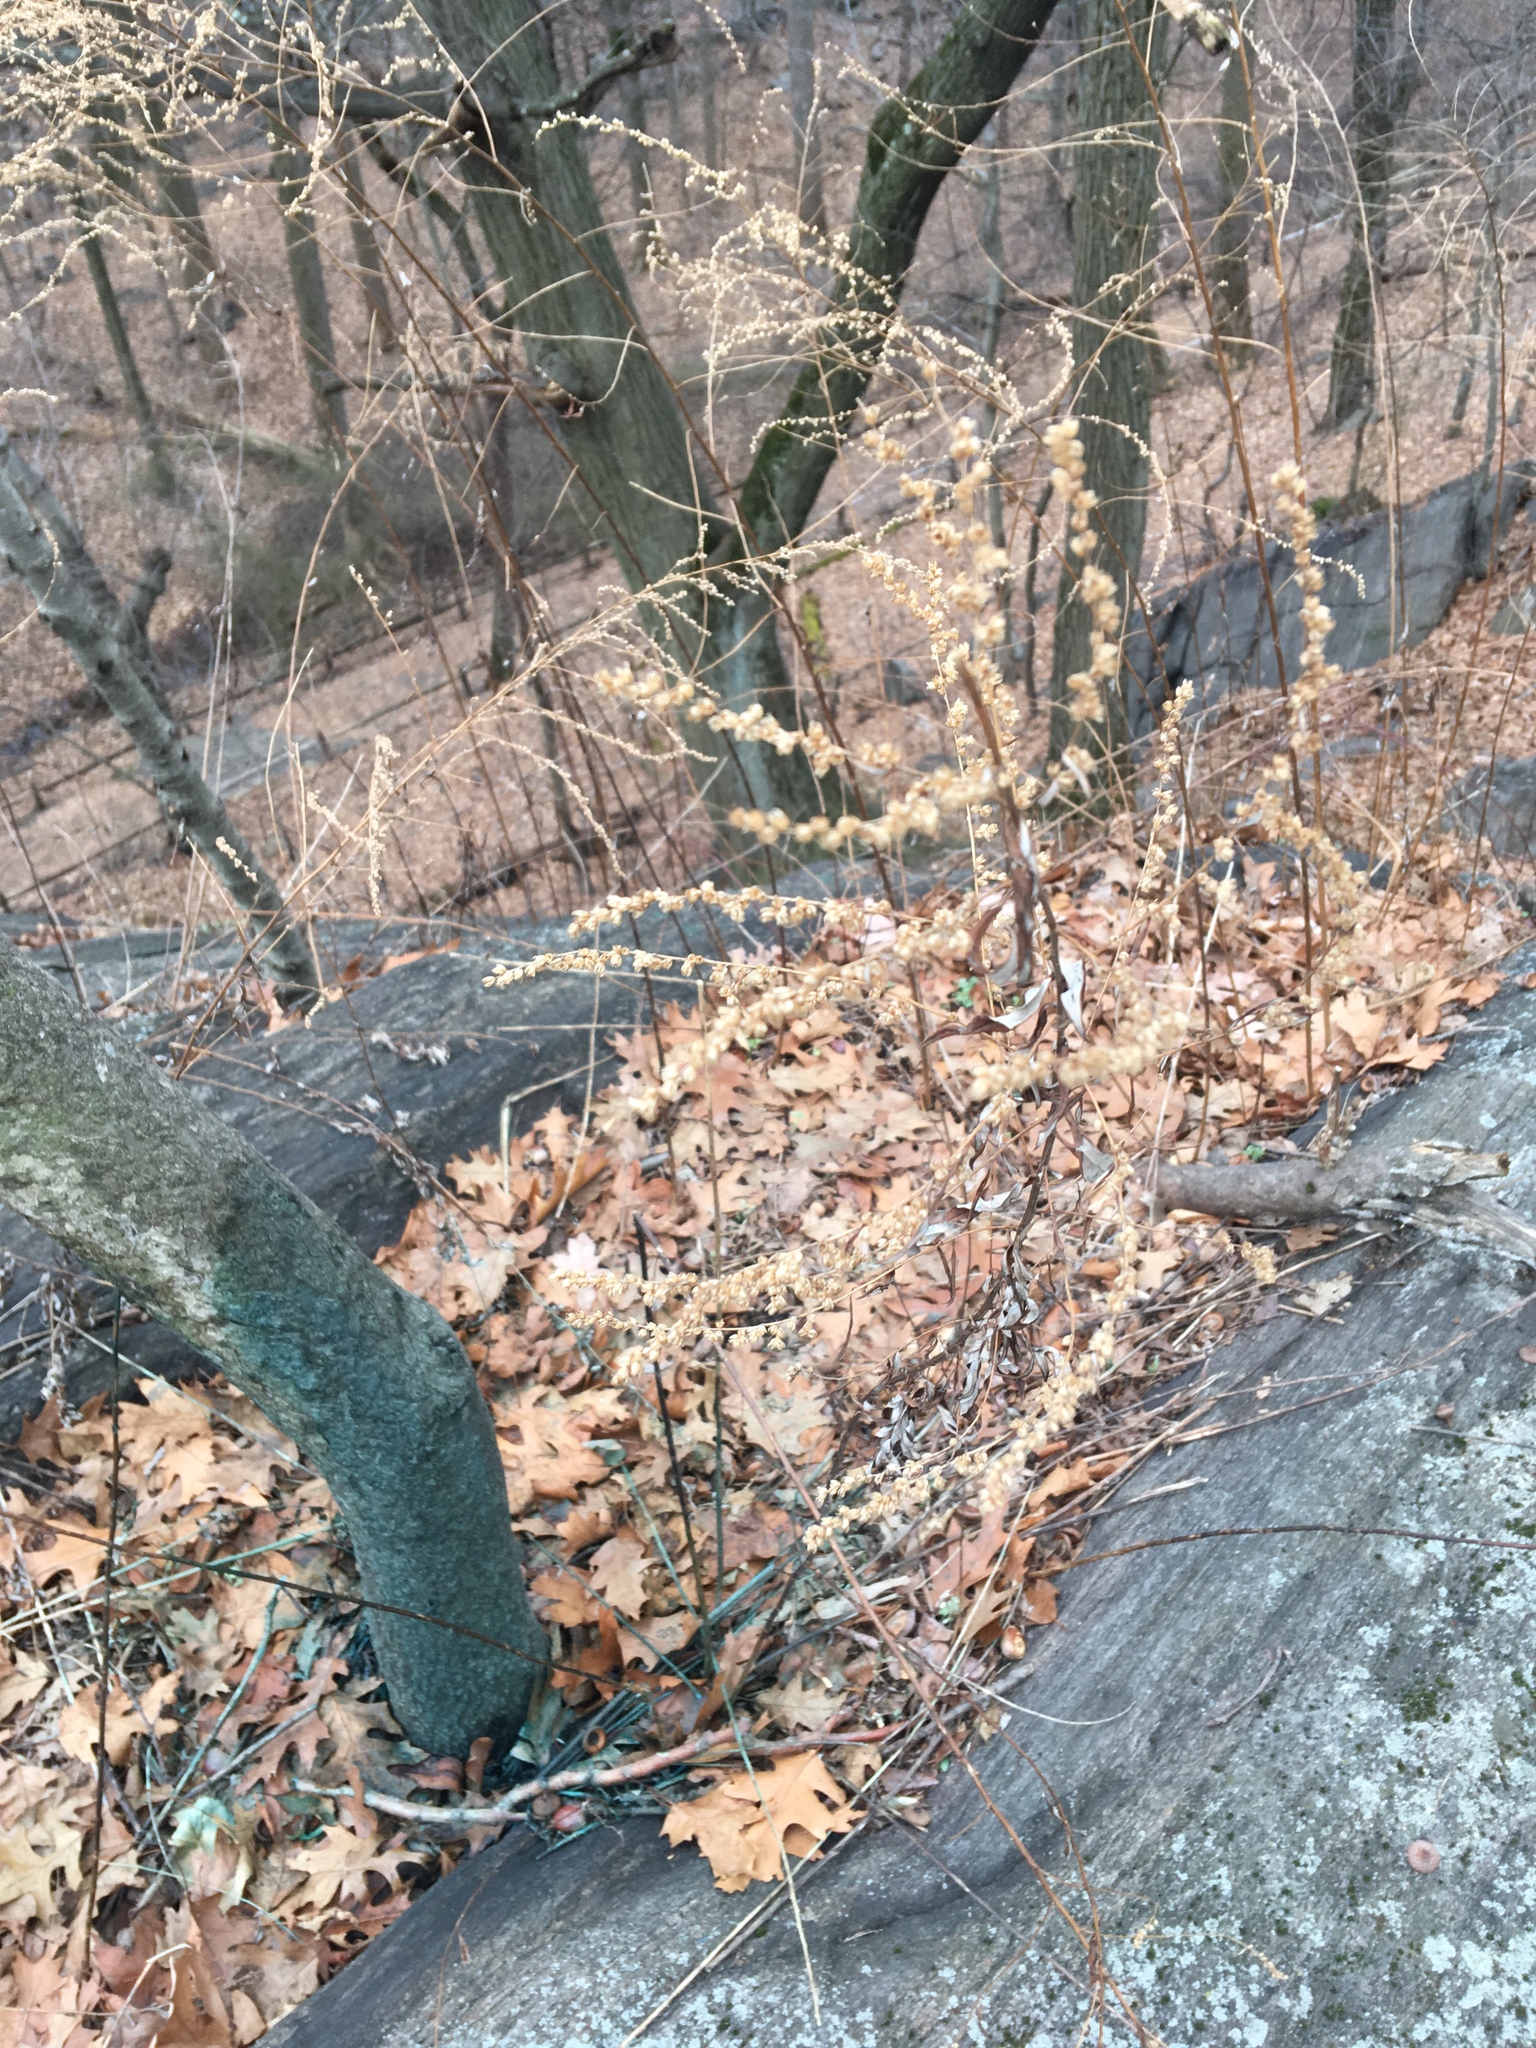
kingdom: Plantae
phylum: Tracheophyta
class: Magnoliopsida
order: Asterales
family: Asteraceae
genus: Artemisia
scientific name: Artemisia vulgaris
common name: Mugwort
